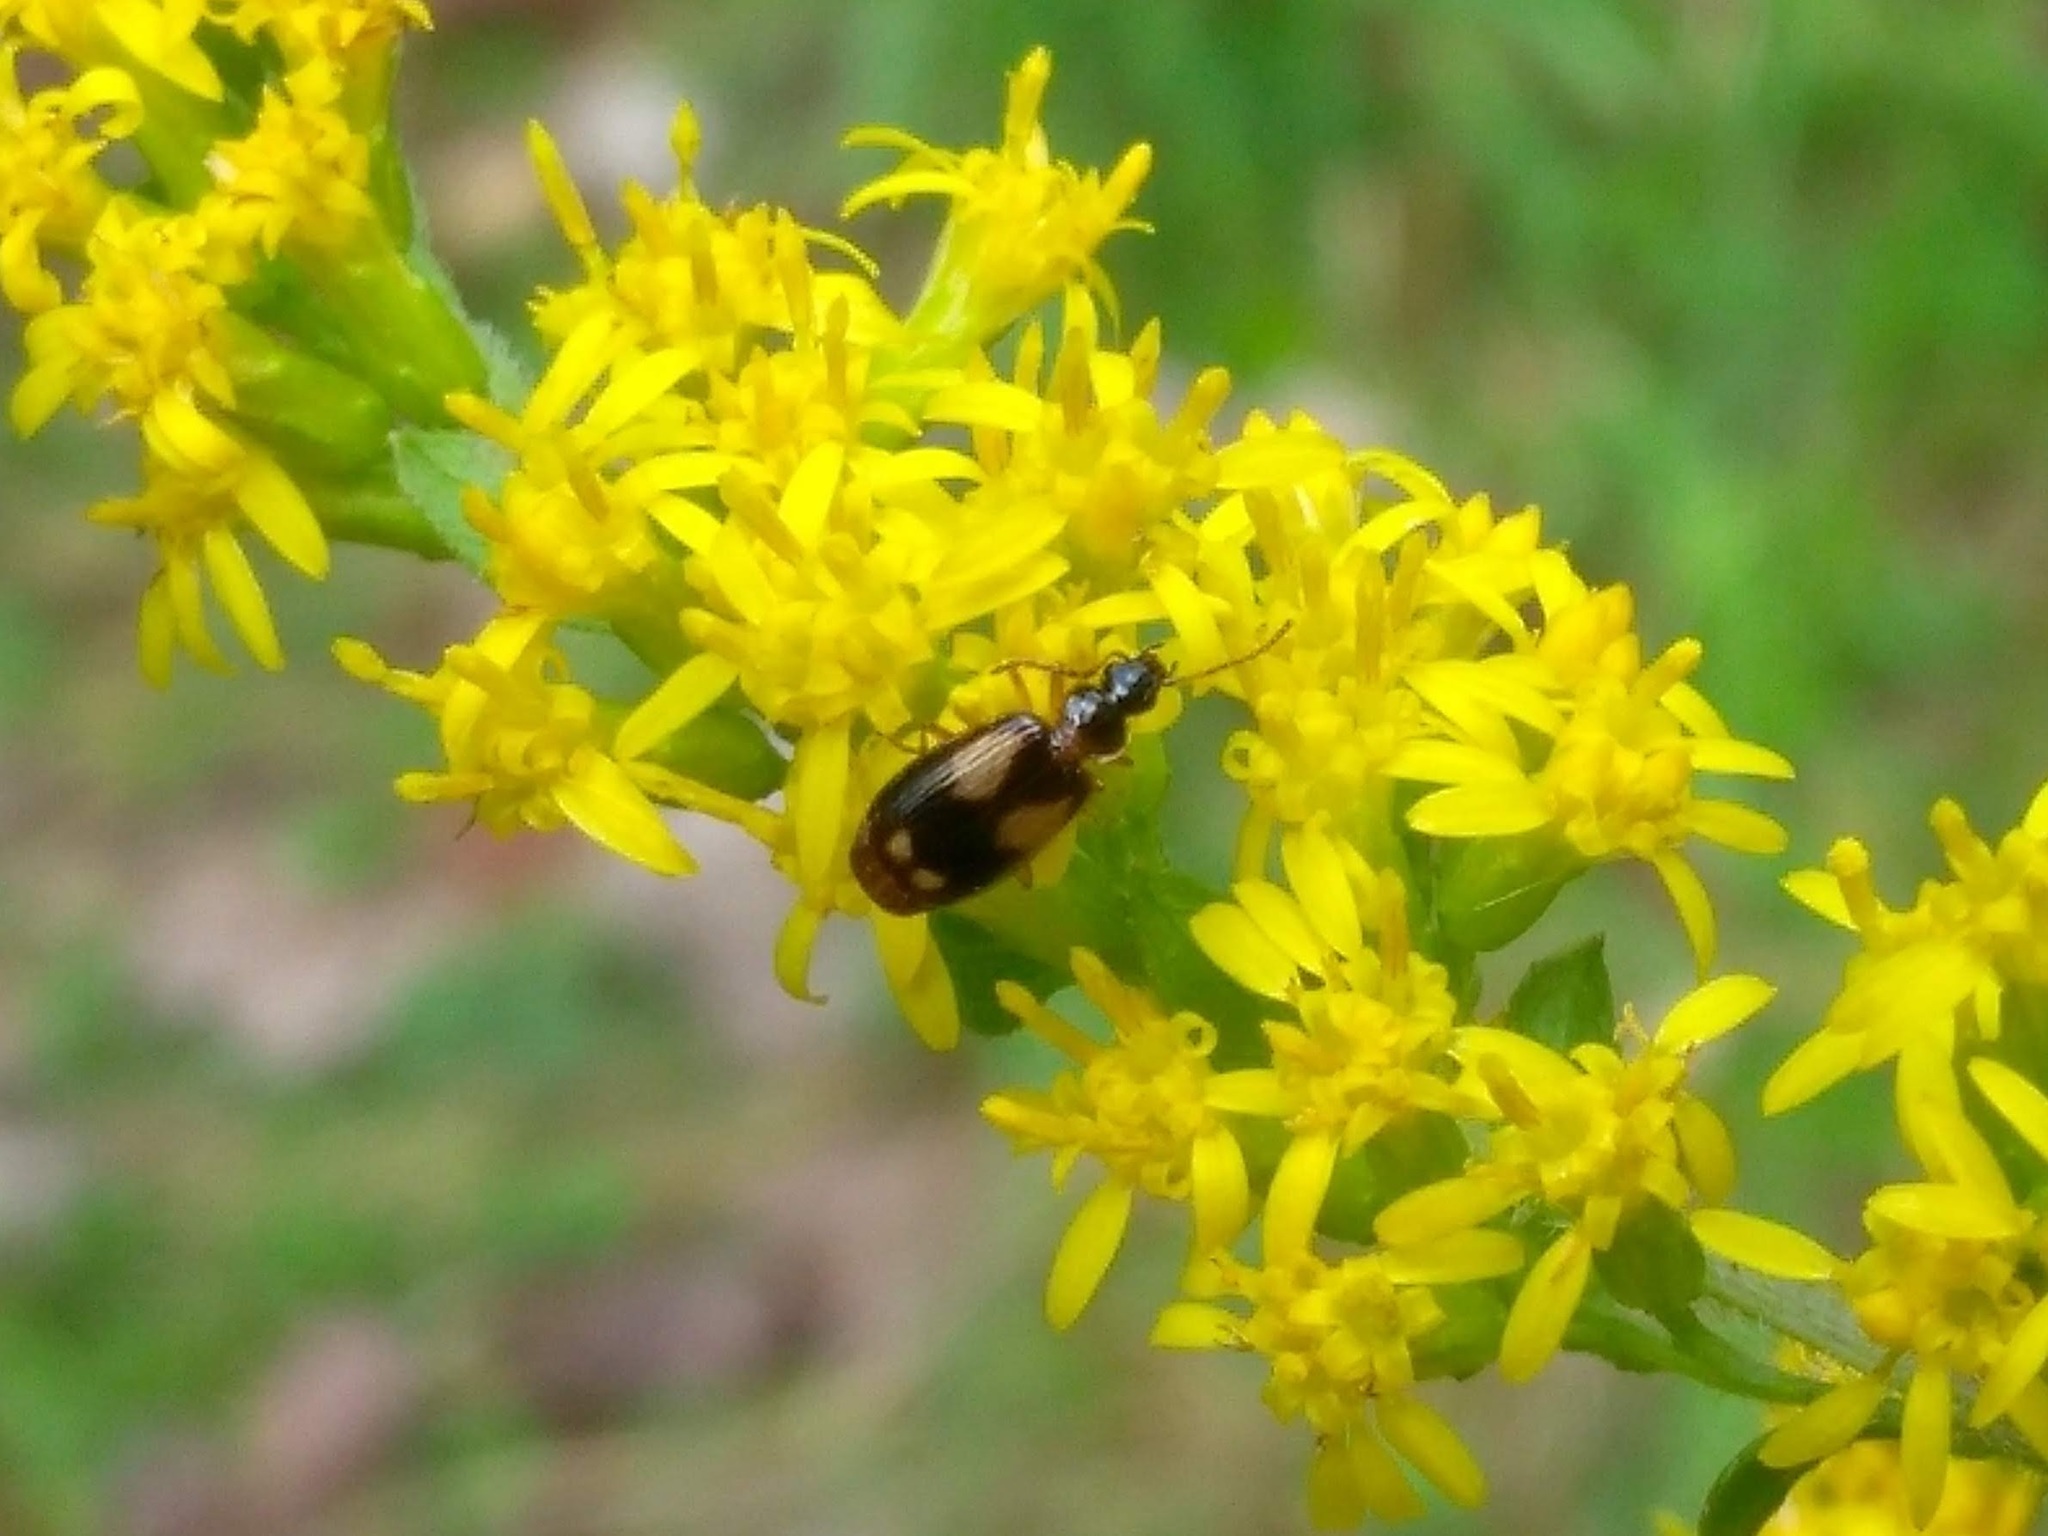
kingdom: Animalia
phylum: Arthropoda
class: Insecta
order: Coleoptera
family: Carabidae
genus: Lebia
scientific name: Lebia ornata
